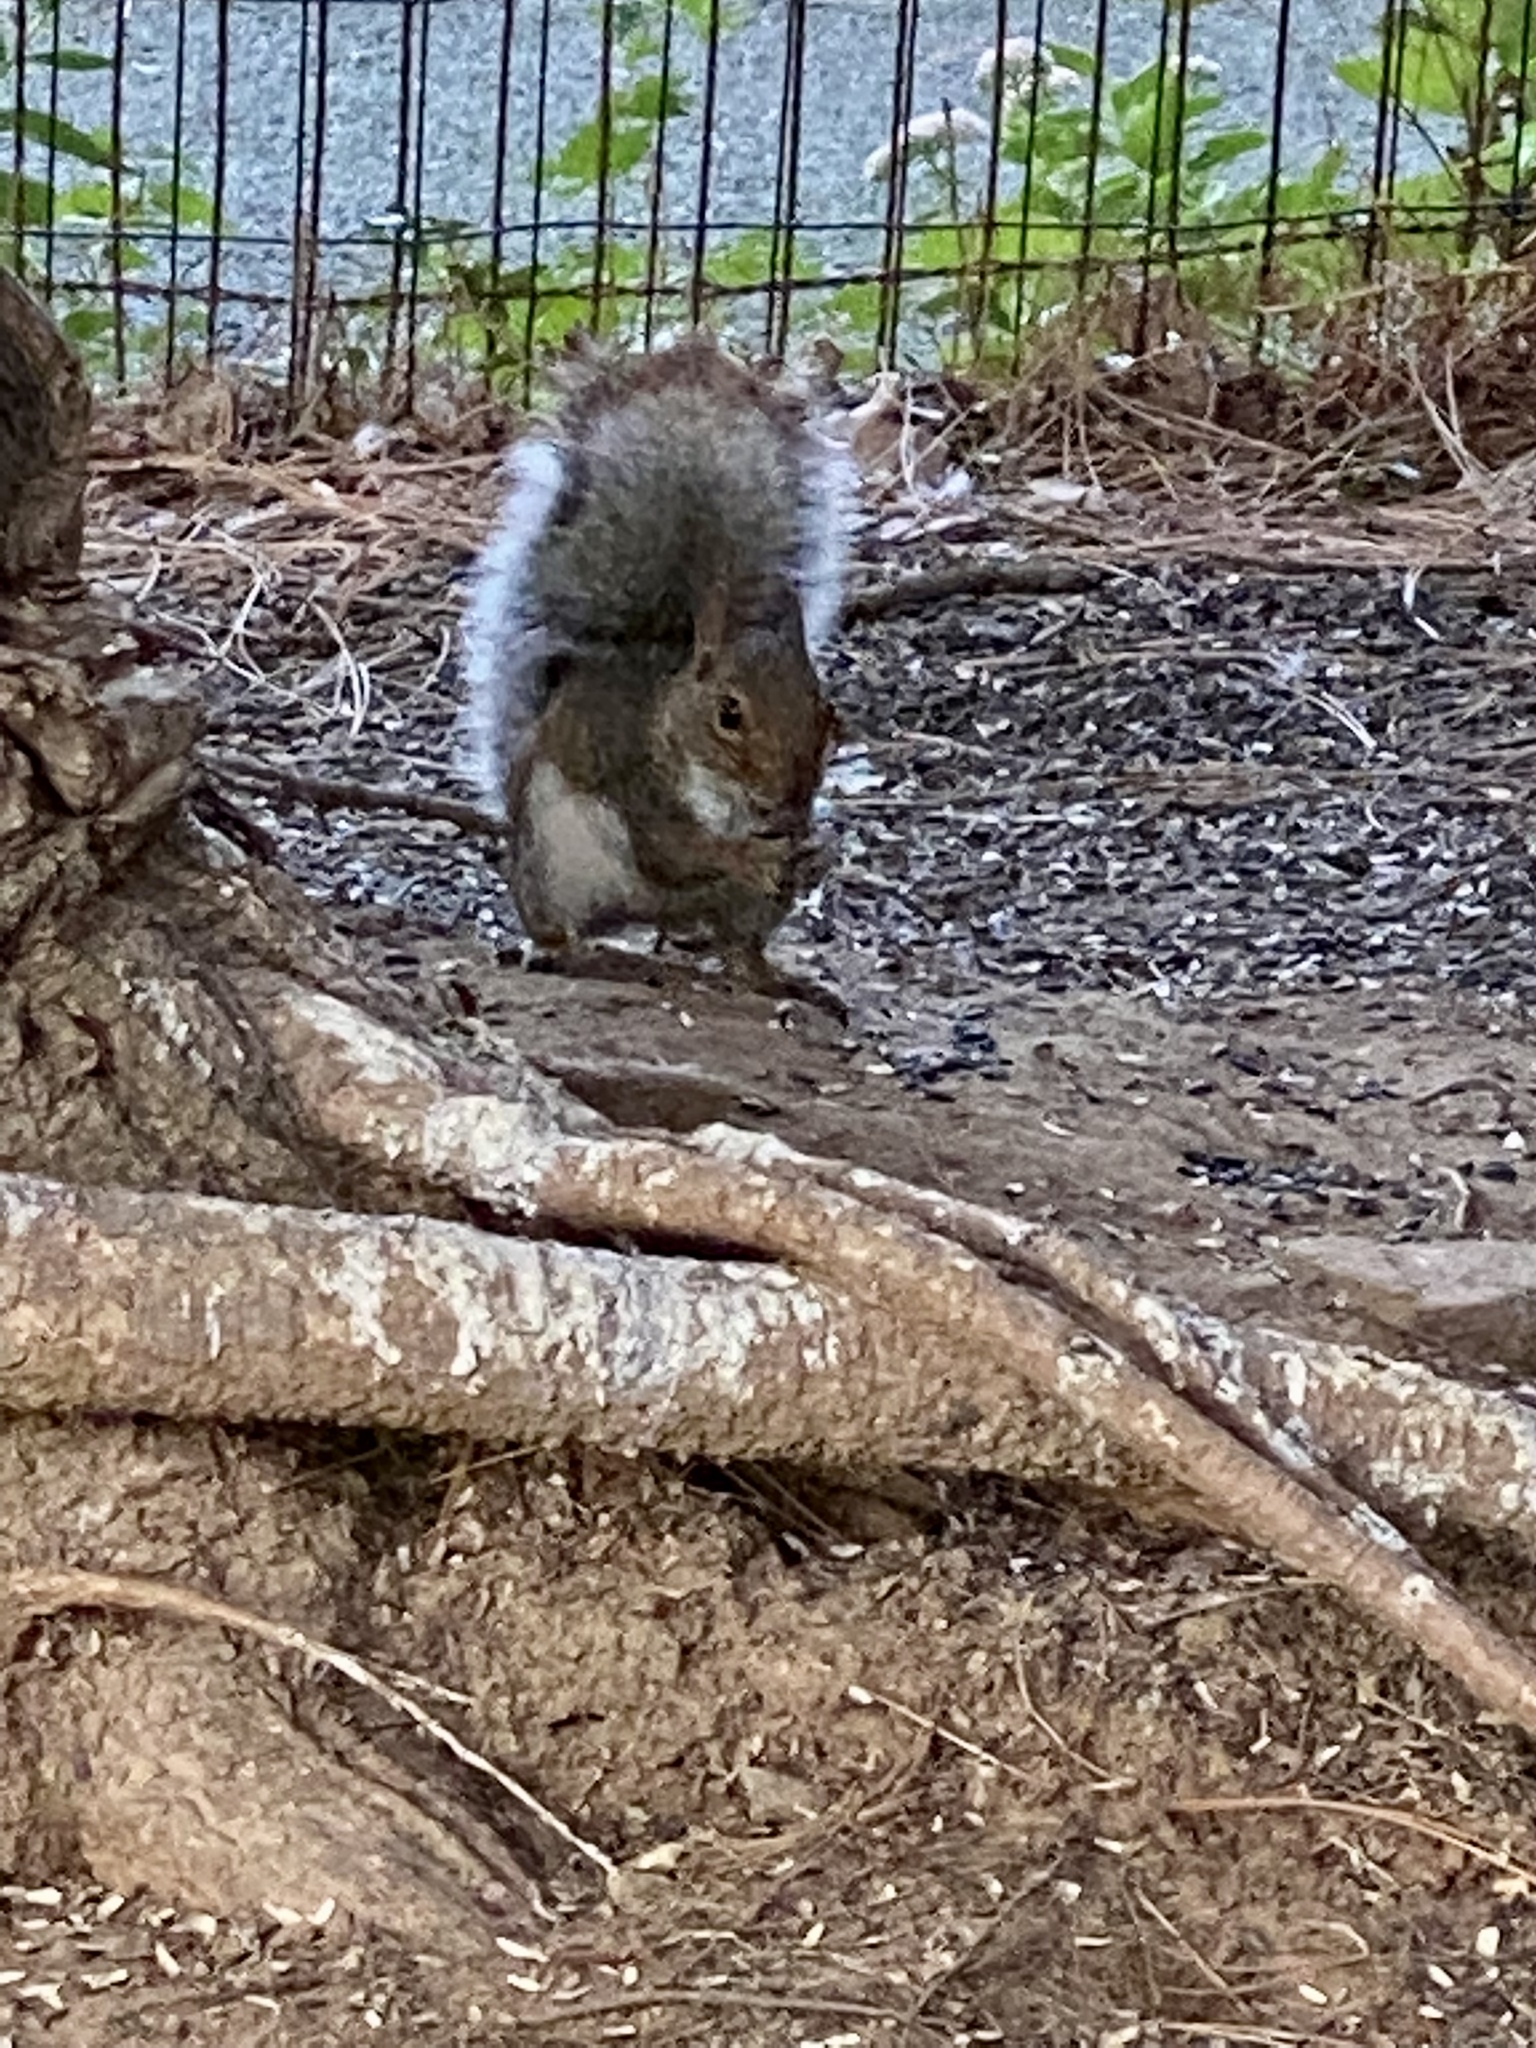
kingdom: Animalia
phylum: Chordata
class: Mammalia
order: Rodentia
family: Sciuridae
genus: Sciurus
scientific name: Sciurus carolinensis
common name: Eastern gray squirrel
